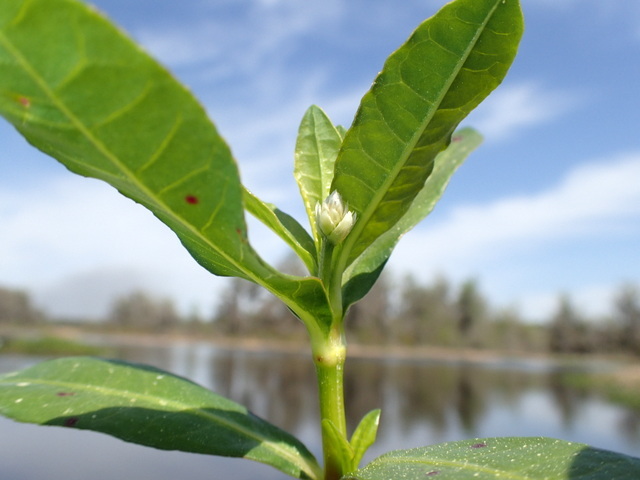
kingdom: Plantae
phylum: Tracheophyta
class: Magnoliopsida
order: Caryophyllales
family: Amaranthaceae
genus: Alternanthera
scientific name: Alternanthera philoxeroides
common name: Alligatorweed
